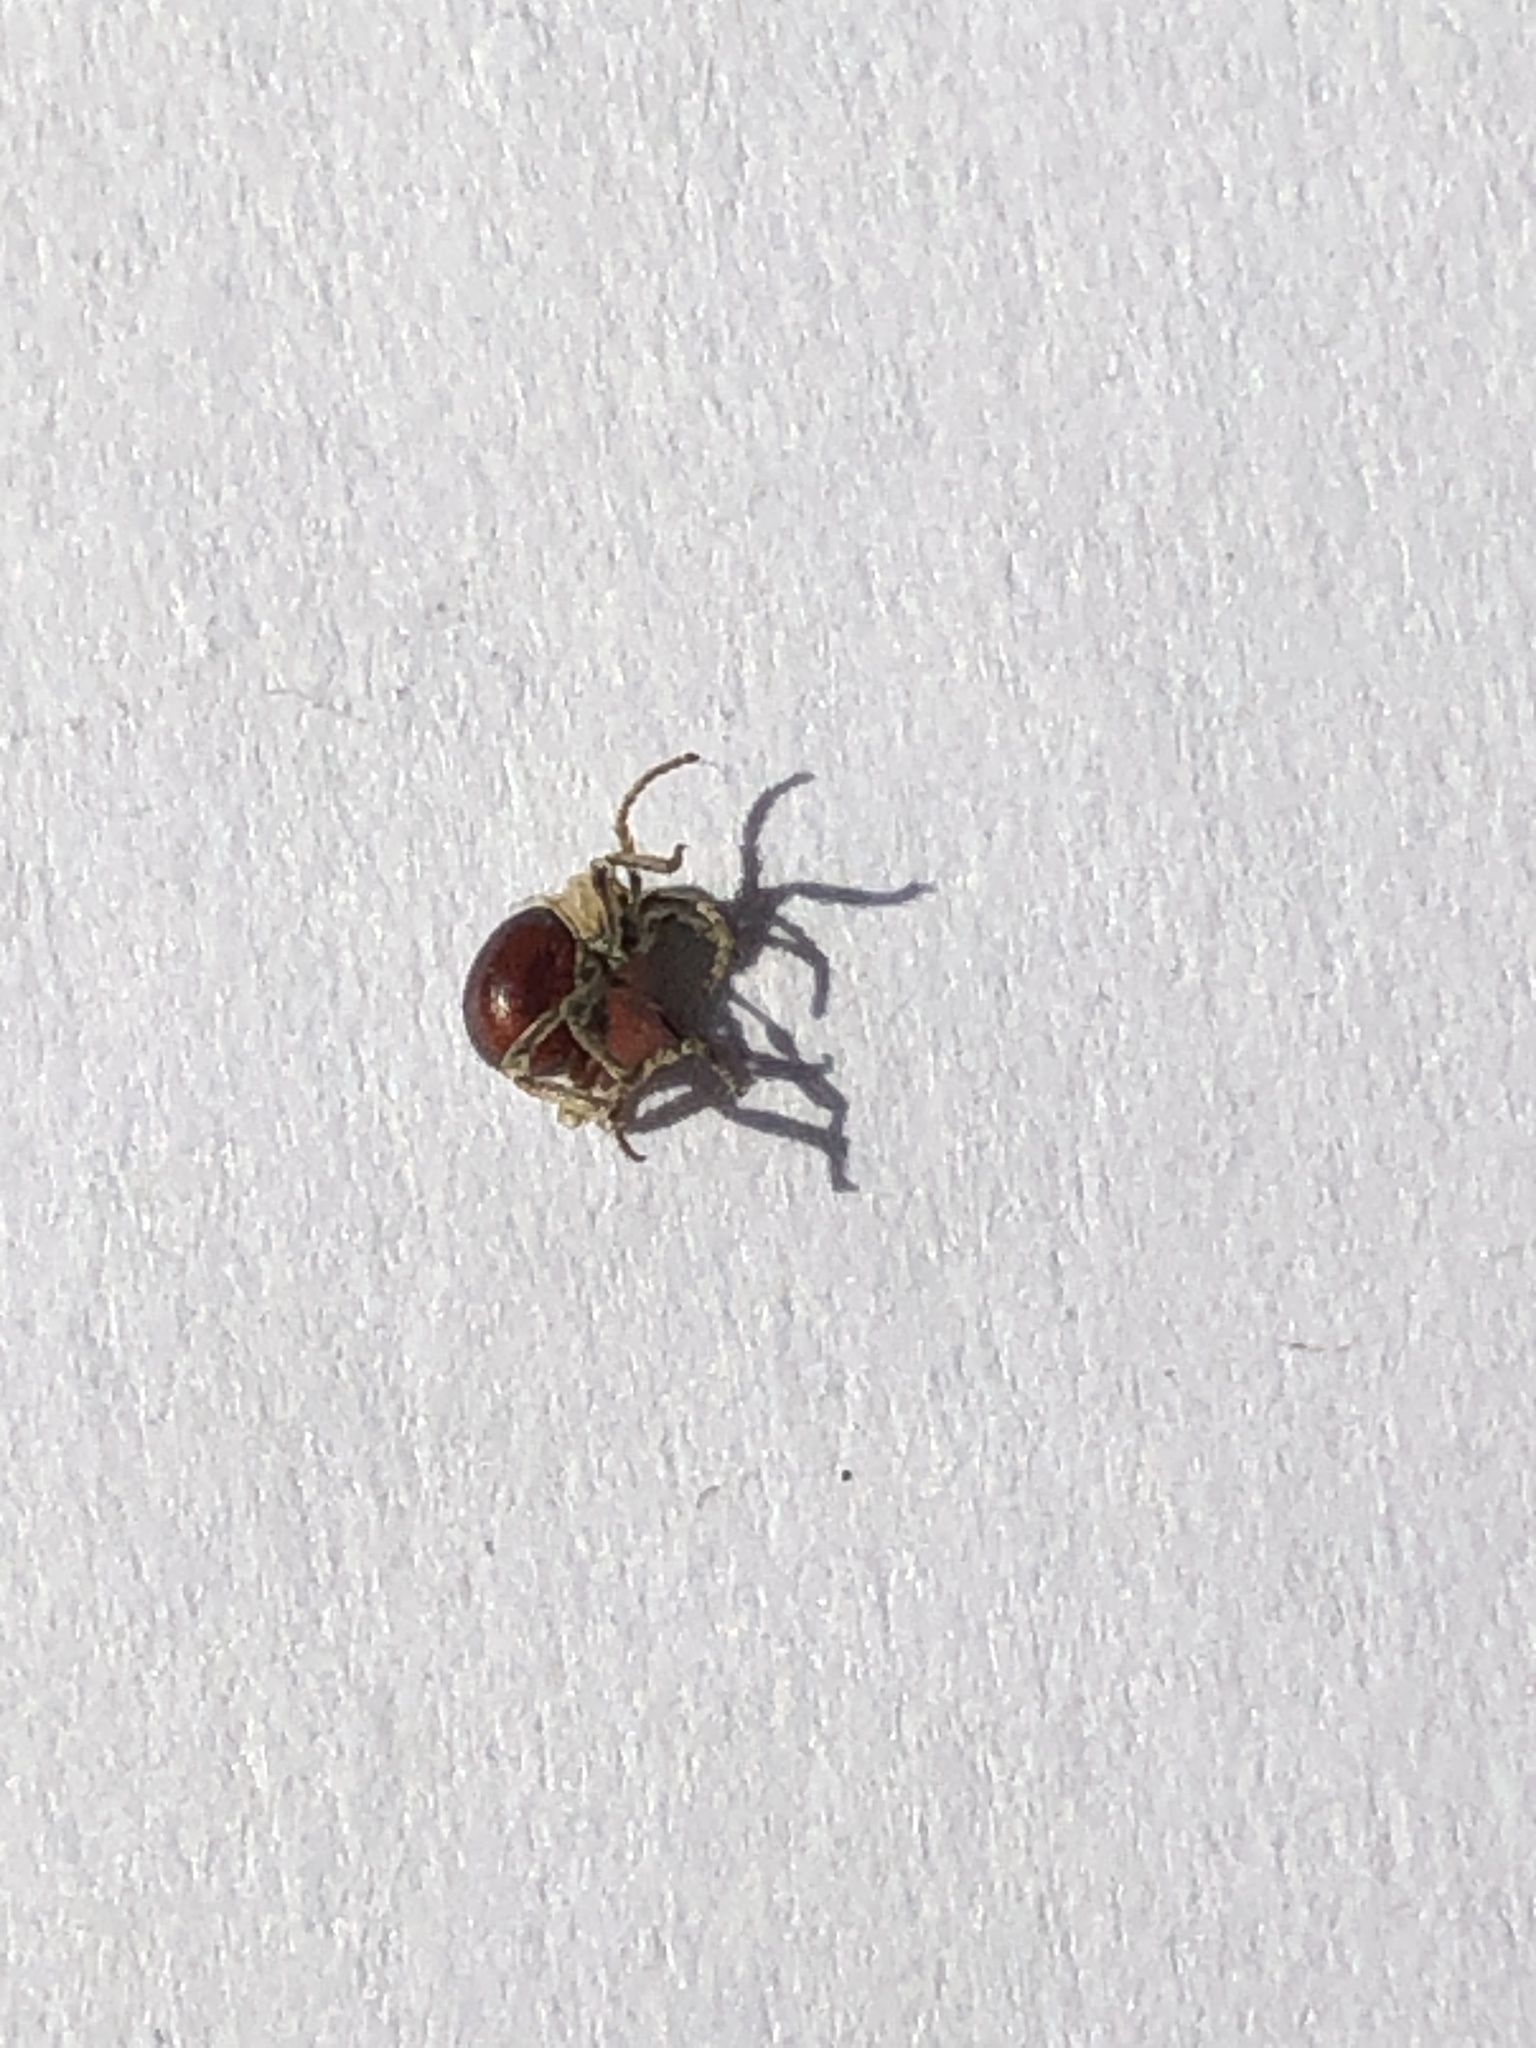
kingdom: Animalia
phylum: Arthropoda
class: Insecta
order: Coleoptera
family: Ptinidae
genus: Mezium
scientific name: Mezium affine
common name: Shiny spider beetle
